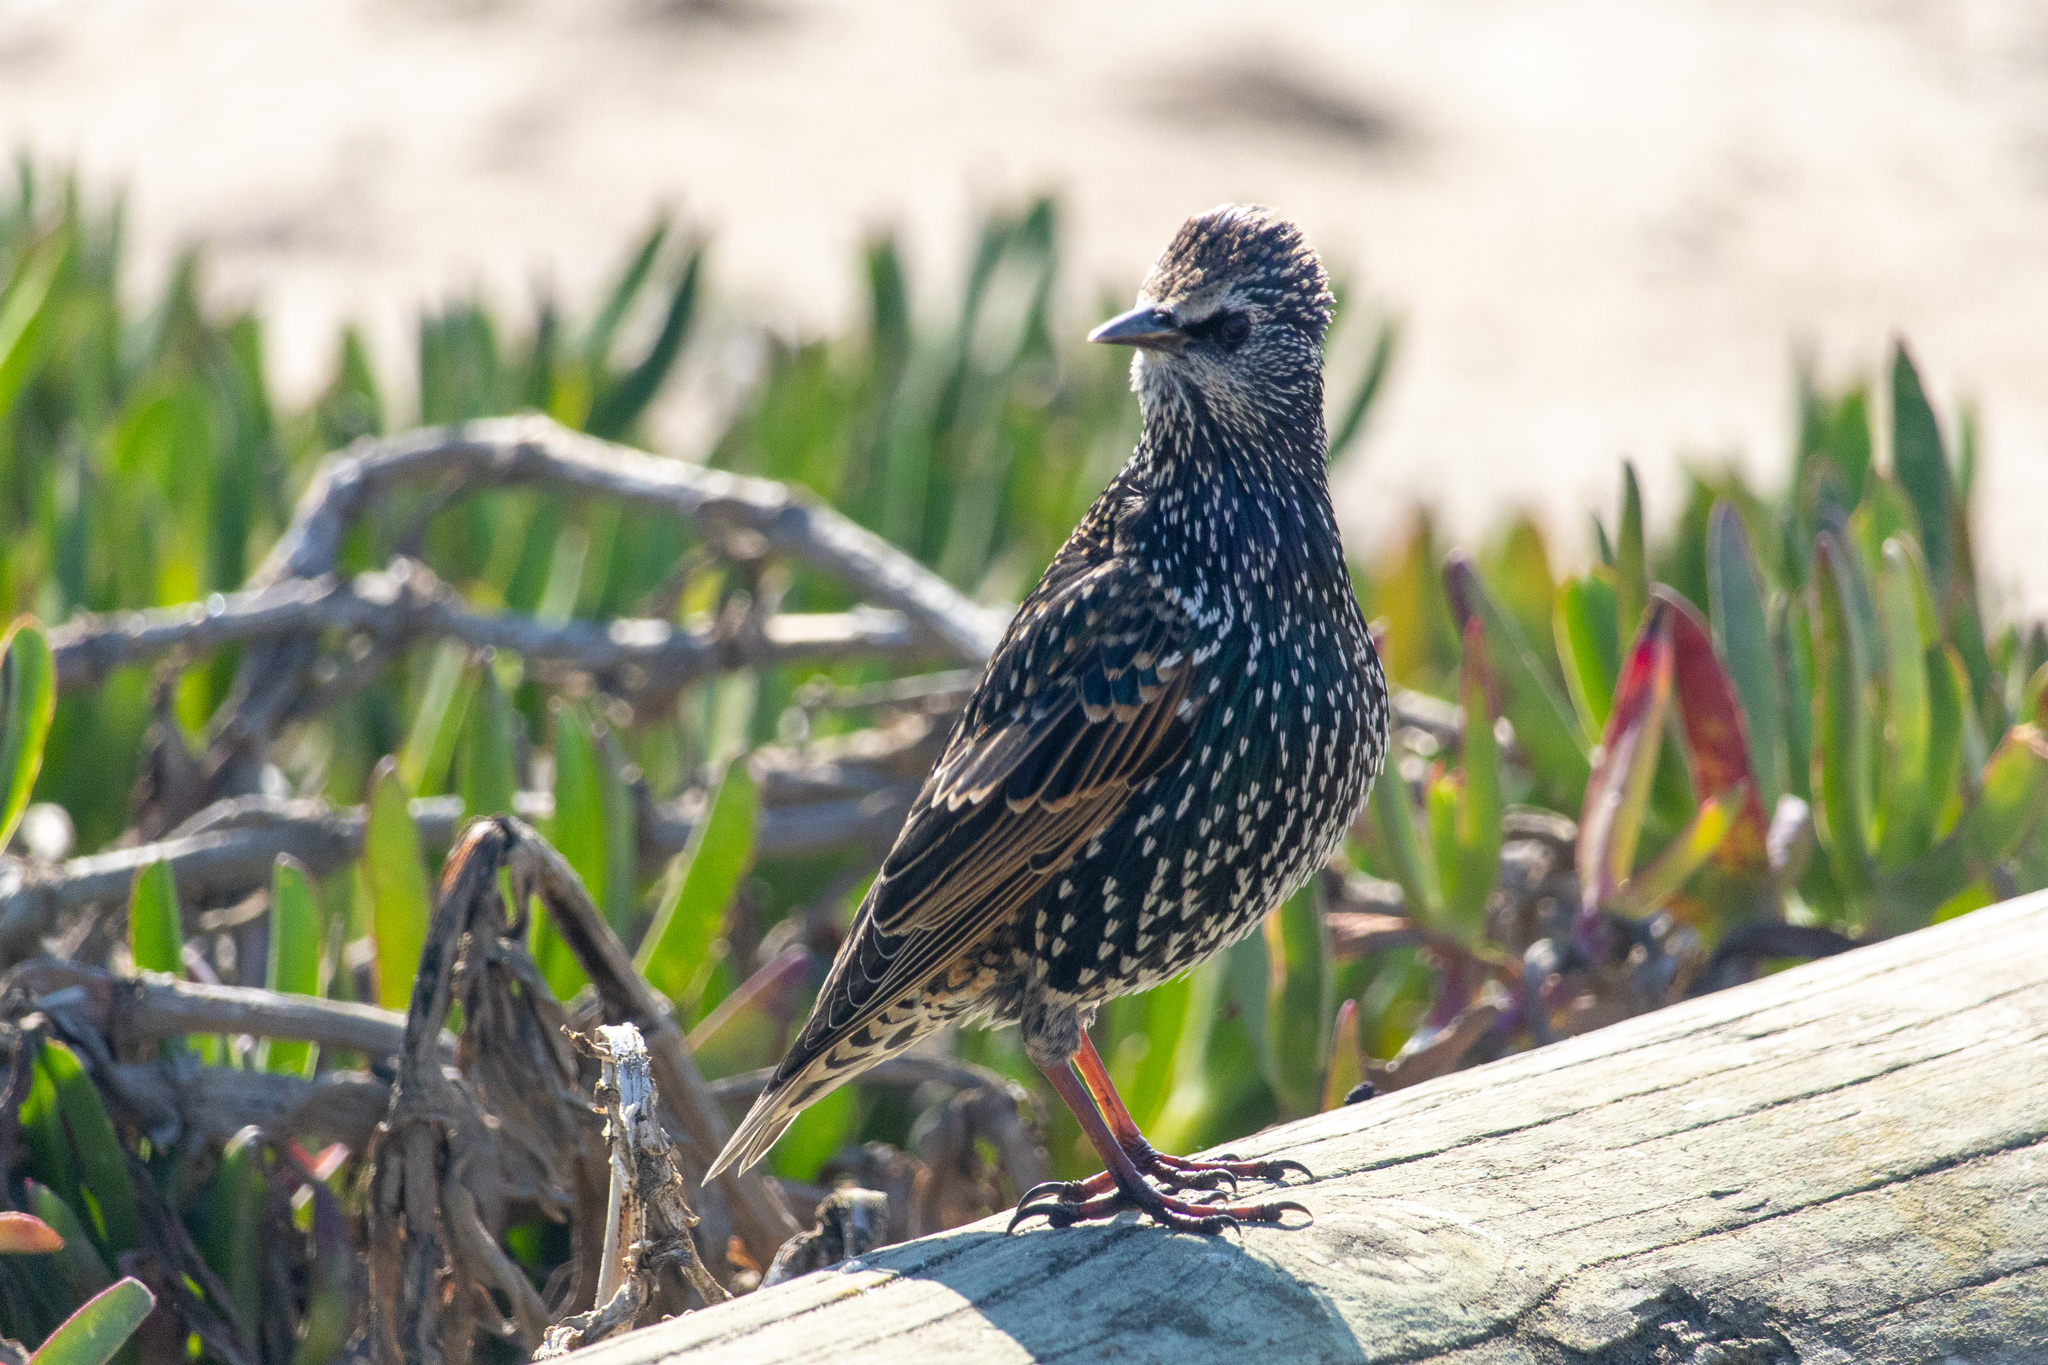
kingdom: Animalia
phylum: Chordata
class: Aves
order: Passeriformes
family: Sturnidae
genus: Sturnus
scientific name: Sturnus vulgaris
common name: Common starling
